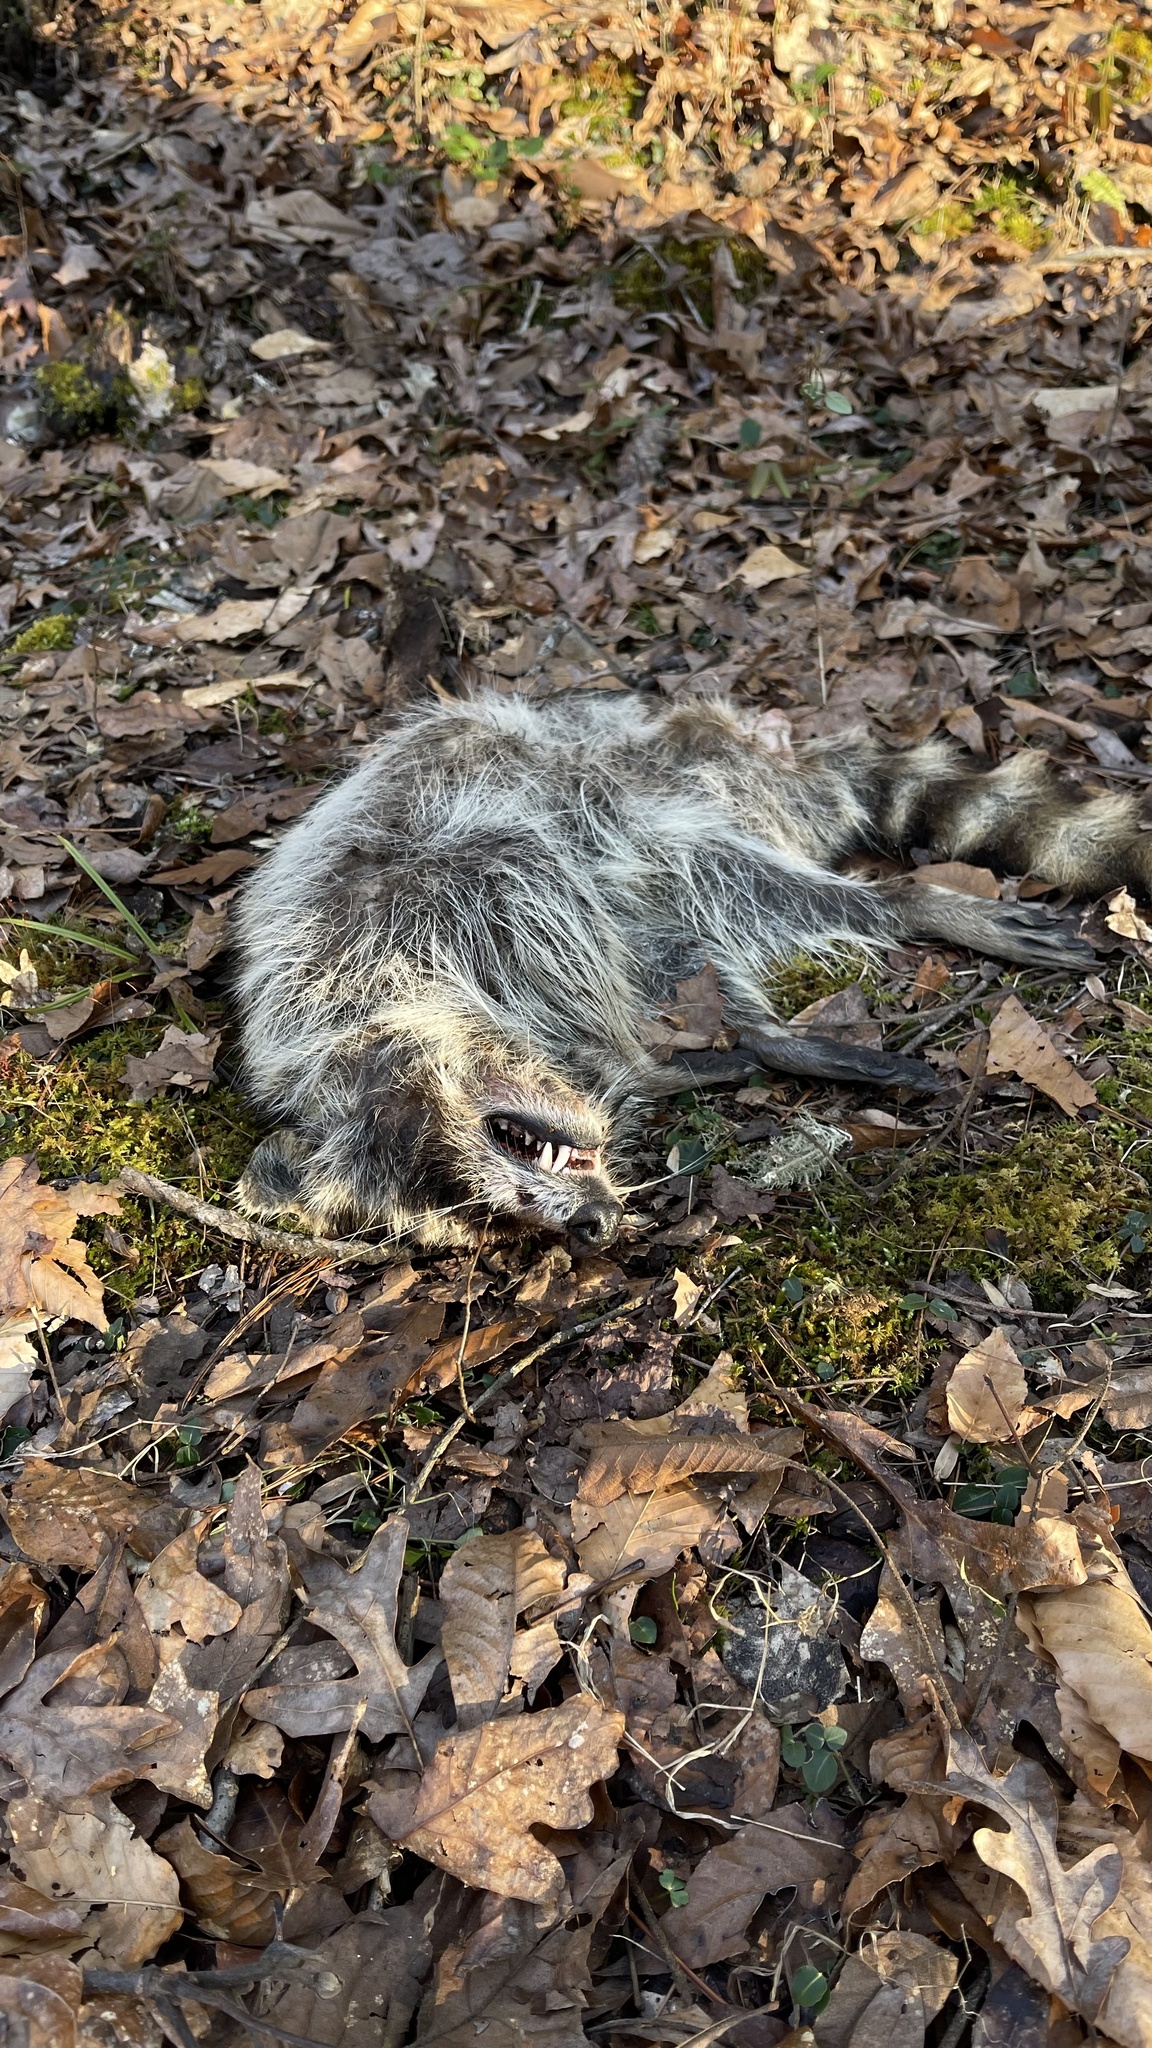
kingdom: Animalia
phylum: Chordata
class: Mammalia
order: Carnivora
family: Procyonidae
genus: Procyon
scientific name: Procyon lotor
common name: Raccoon
